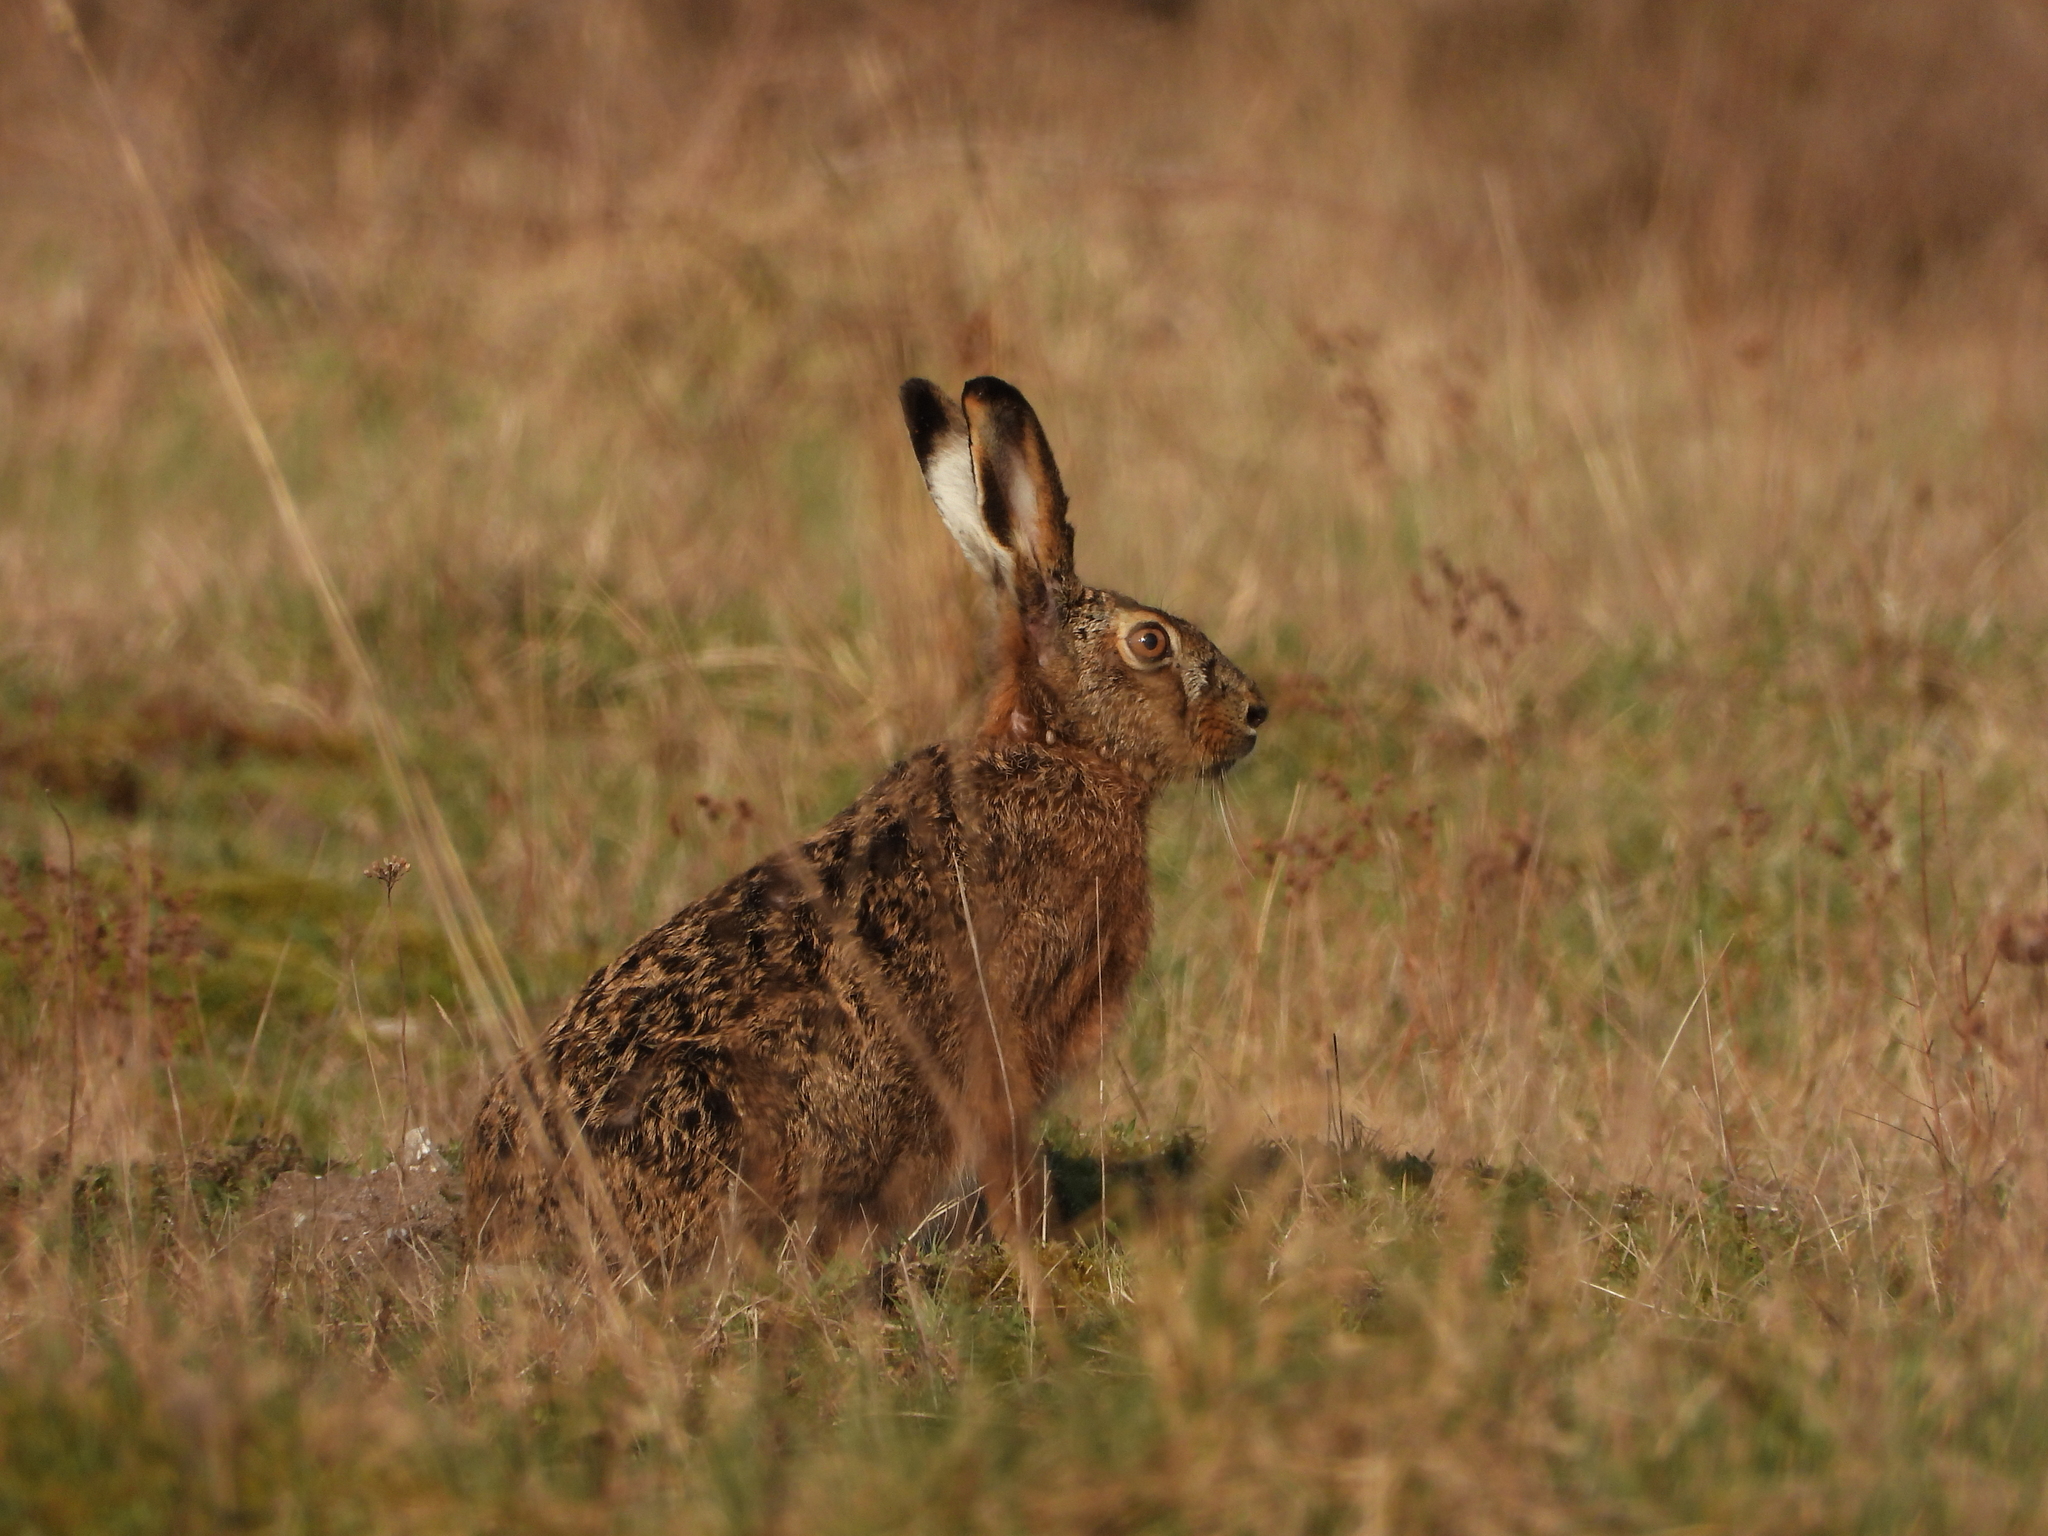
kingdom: Animalia
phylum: Chordata
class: Mammalia
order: Lagomorpha
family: Leporidae
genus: Lepus
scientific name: Lepus europaeus
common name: European hare
